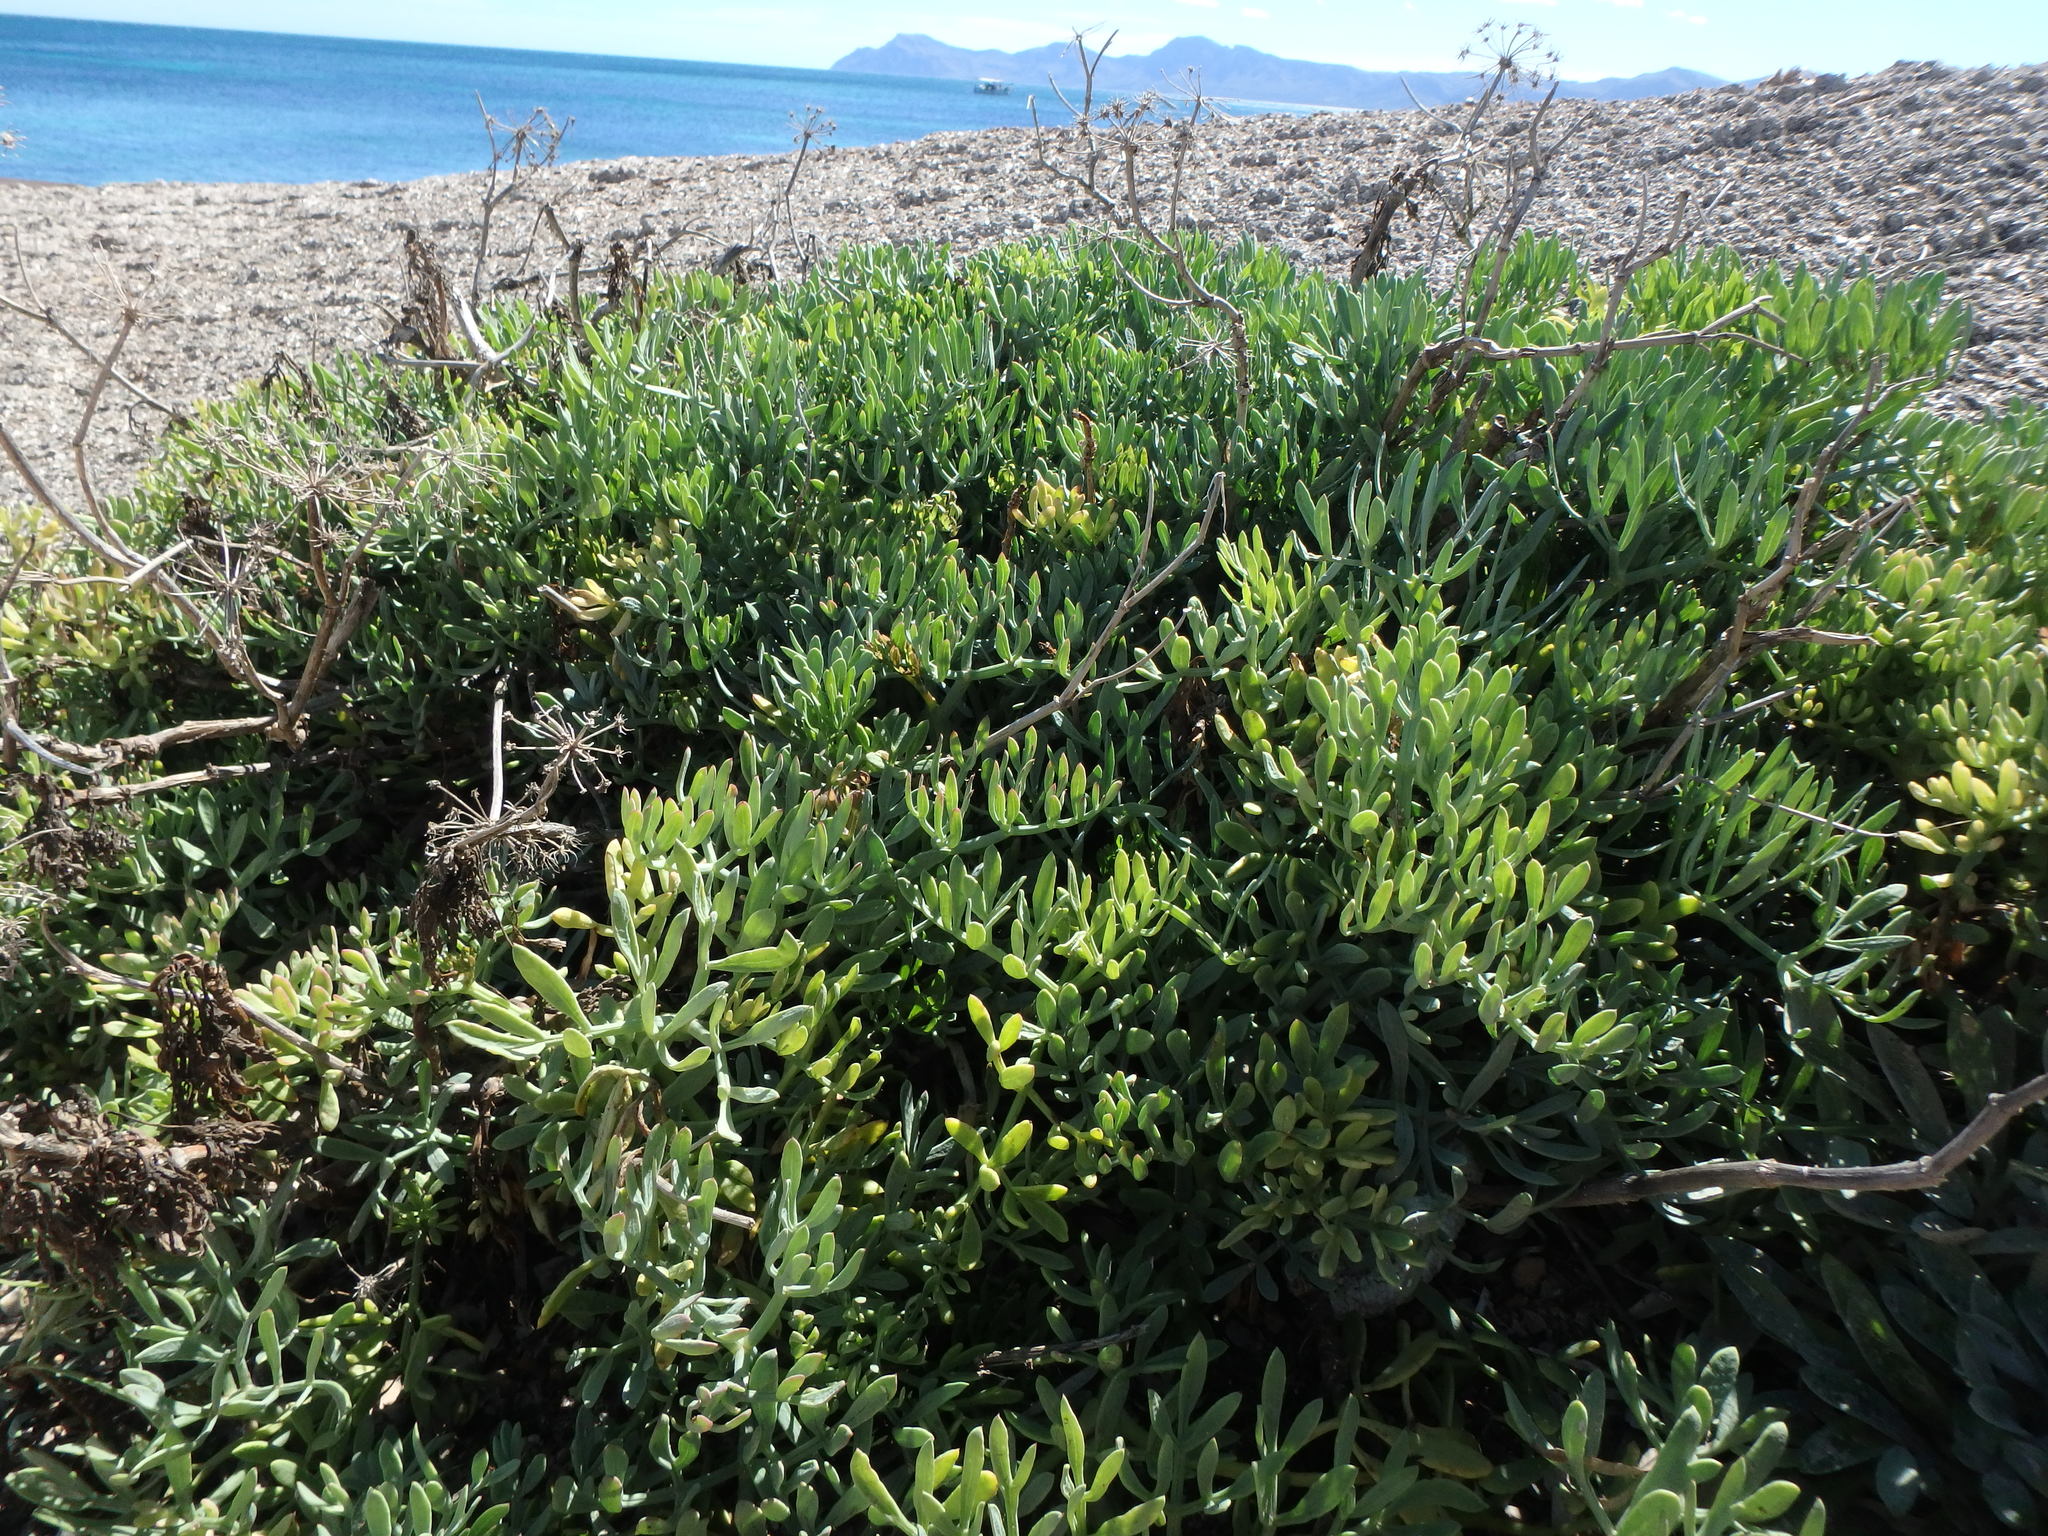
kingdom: Plantae
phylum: Tracheophyta
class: Magnoliopsida
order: Apiales
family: Apiaceae
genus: Crithmum
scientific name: Crithmum maritimum
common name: Rock samphire
